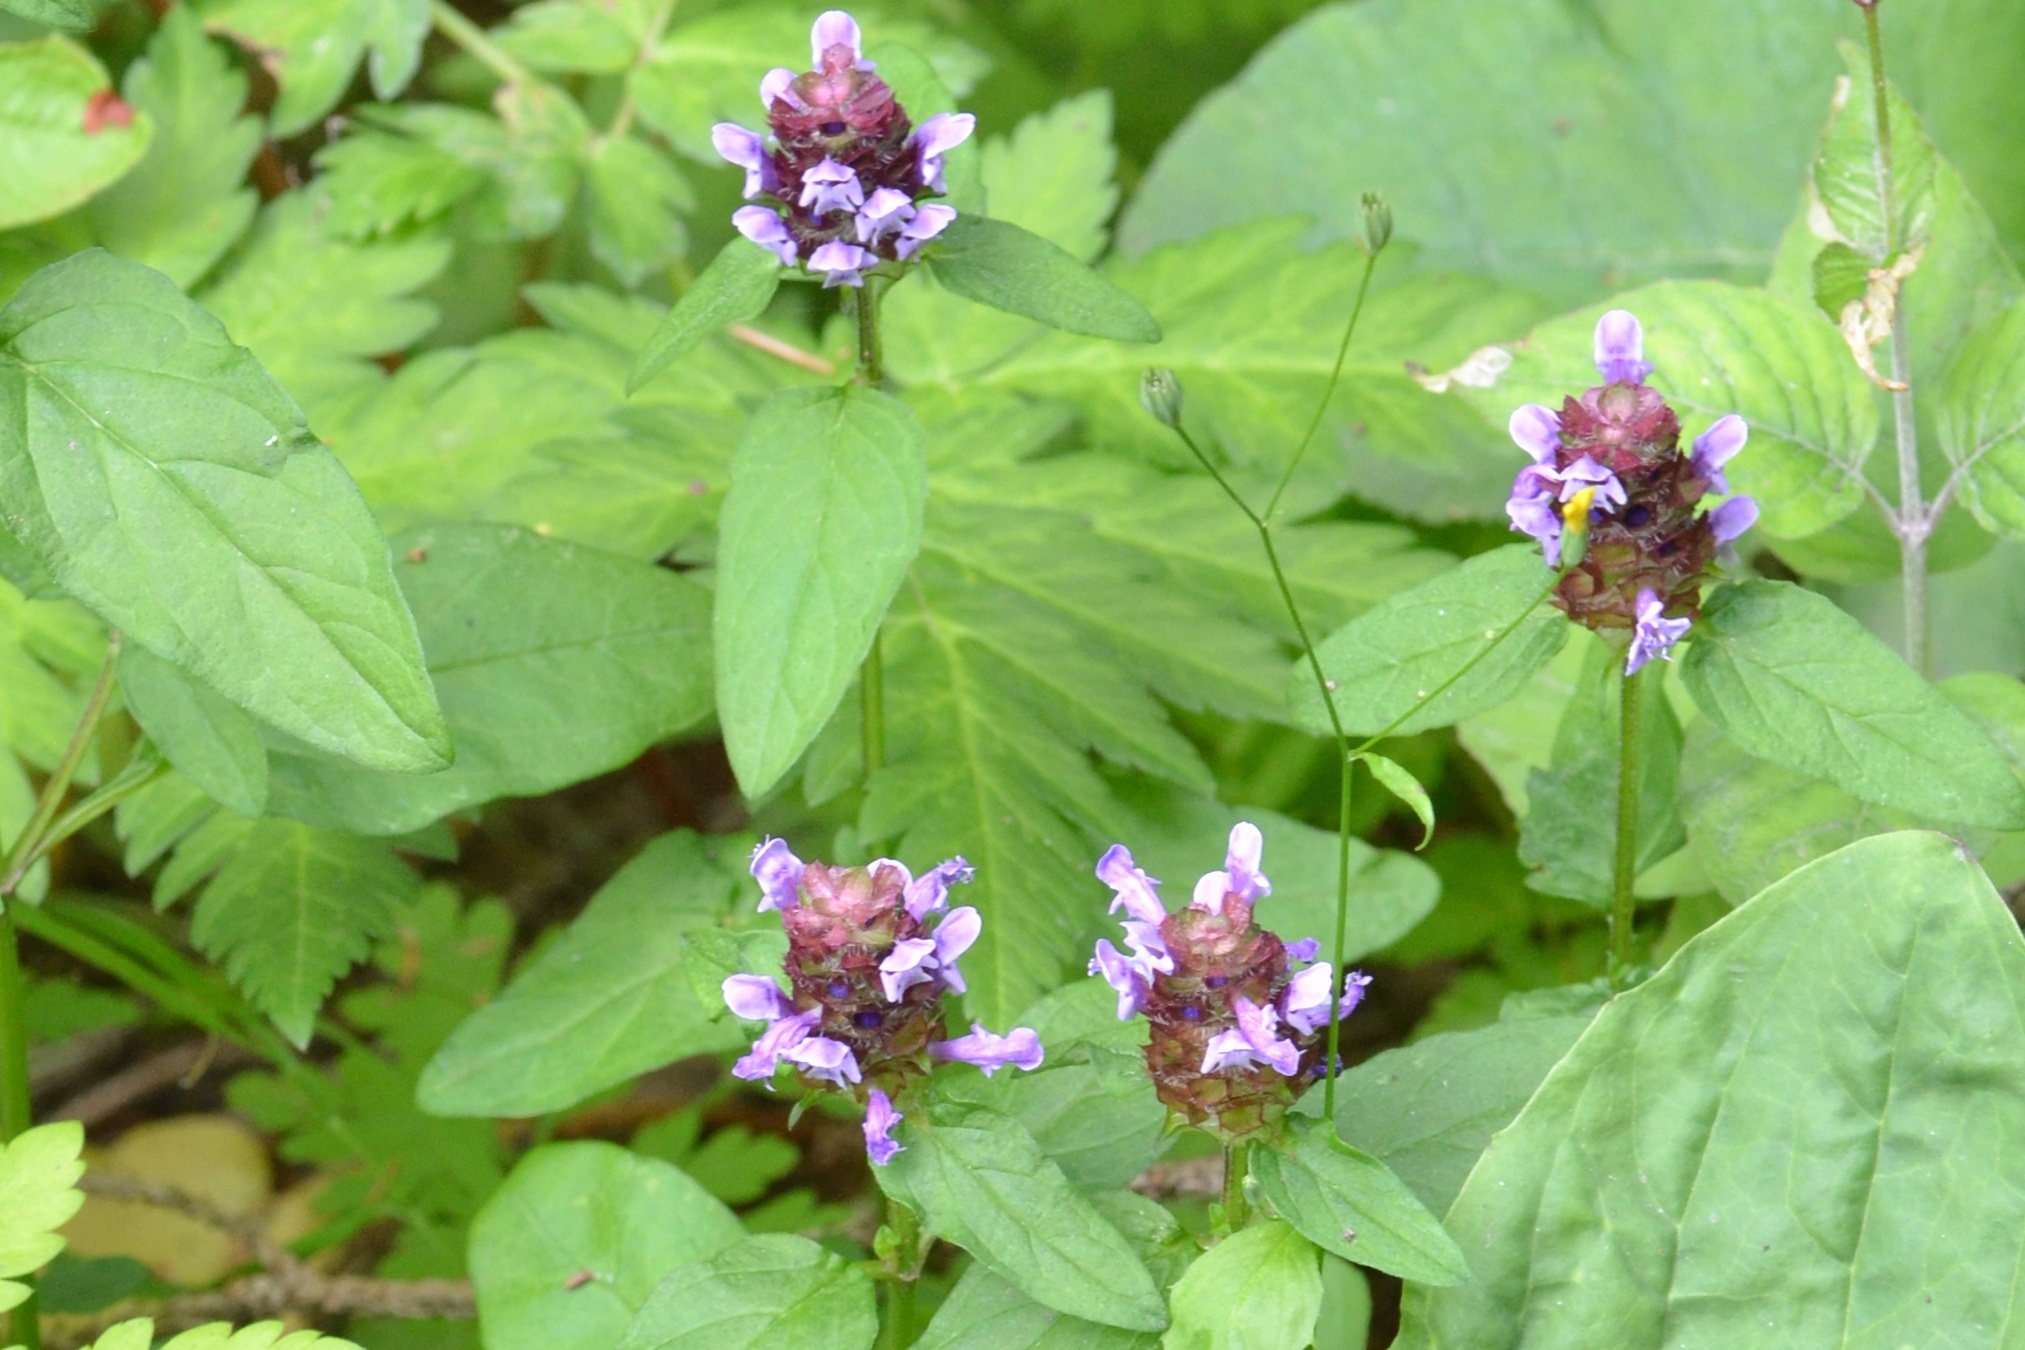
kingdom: Plantae
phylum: Tracheophyta
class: Magnoliopsida
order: Lamiales
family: Lamiaceae
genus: Prunella
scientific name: Prunella vulgaris
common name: Heal-all
